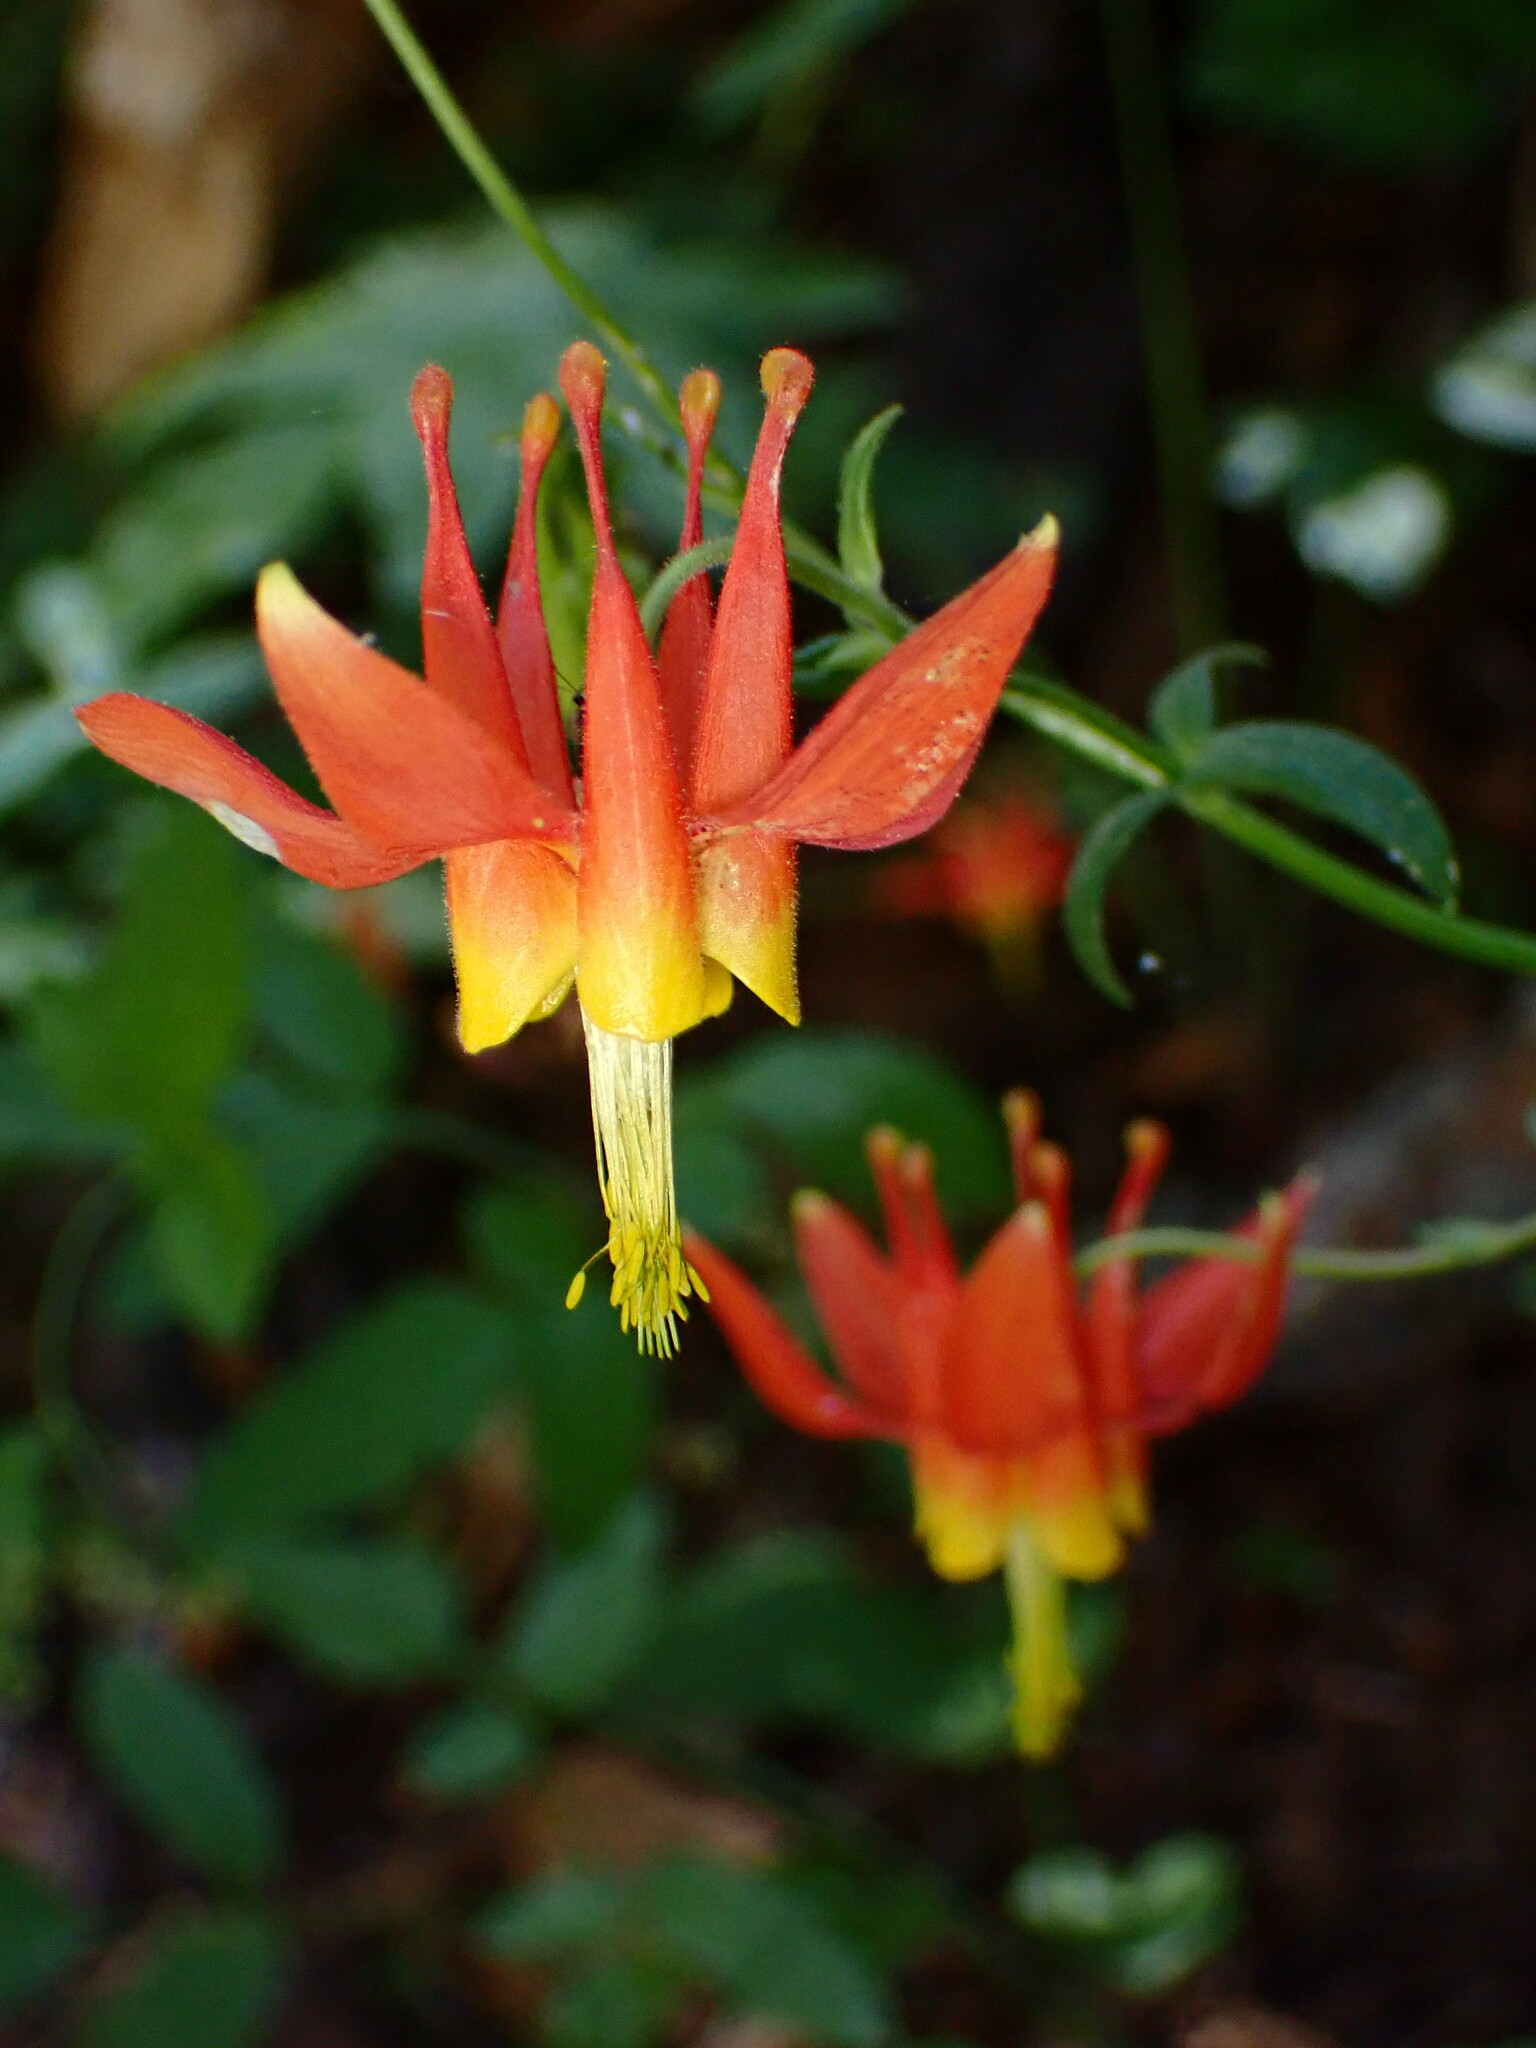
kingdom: Plantae
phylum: Tracheophyta
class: Magnoliopsida
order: Ranunculales
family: Ranunculaceae
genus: Aquilegia
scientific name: Aquilegia formosa
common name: Sitka columbine
